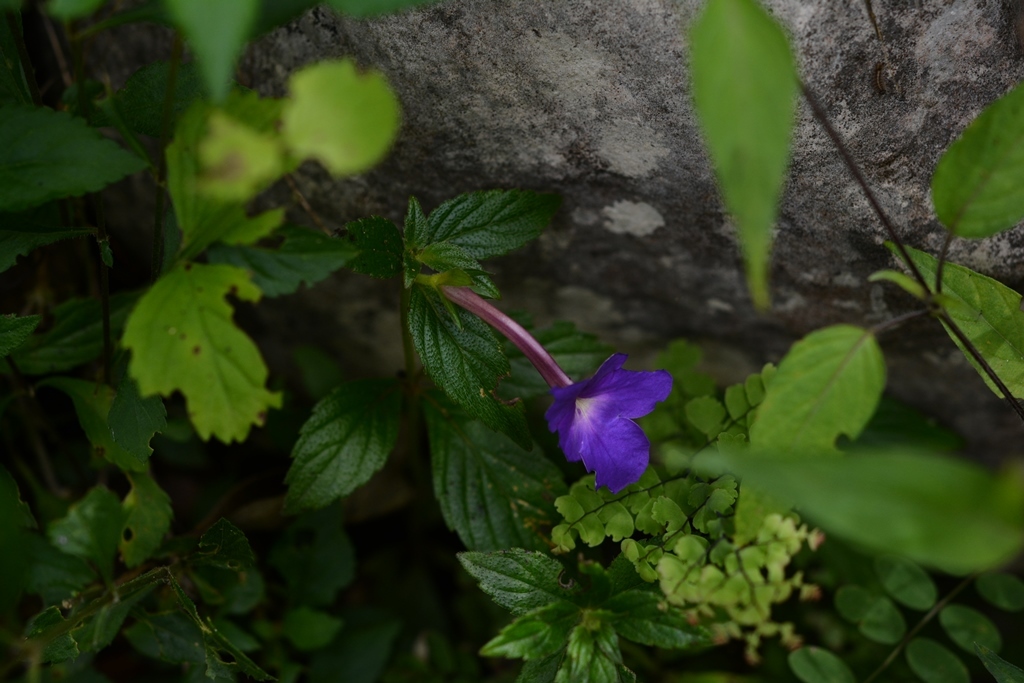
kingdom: Plantae
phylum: Tracheophyta
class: Magnoliopsida
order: Lamiales
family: Gesneriaceae
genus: Achimenes
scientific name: Achimenes longiflora
